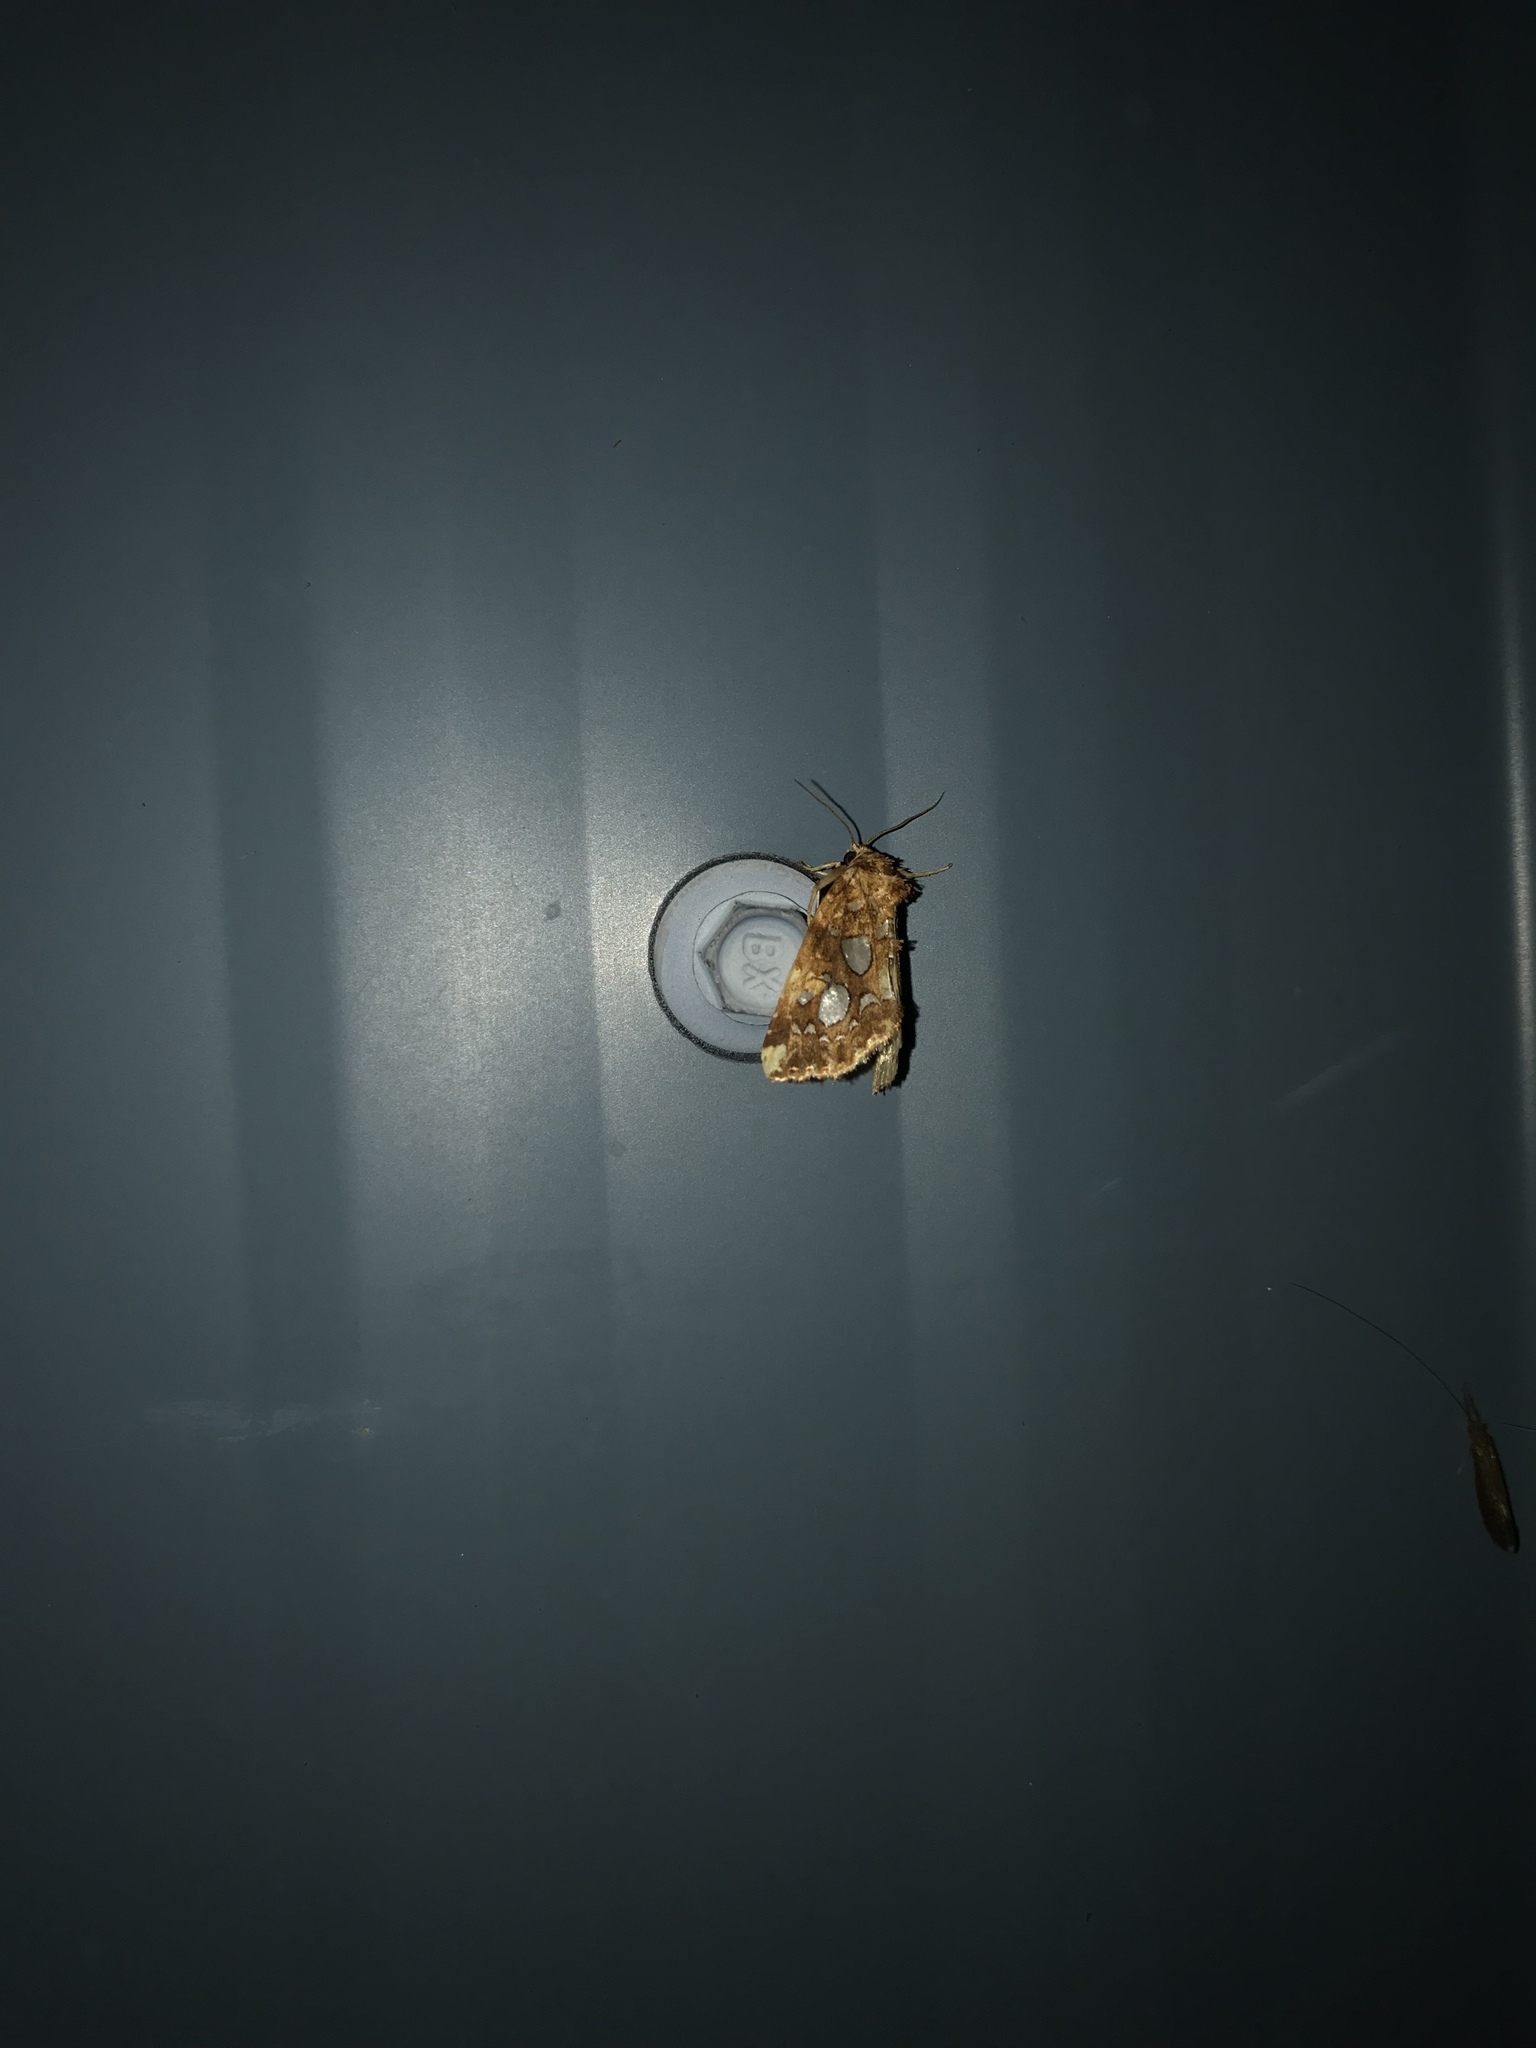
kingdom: Animalia
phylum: Arthropoda
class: Insecta
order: Lepidoptera
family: Noctuidae
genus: Callopistria
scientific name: Callopistria cordata
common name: Silver-spotted fern moth
